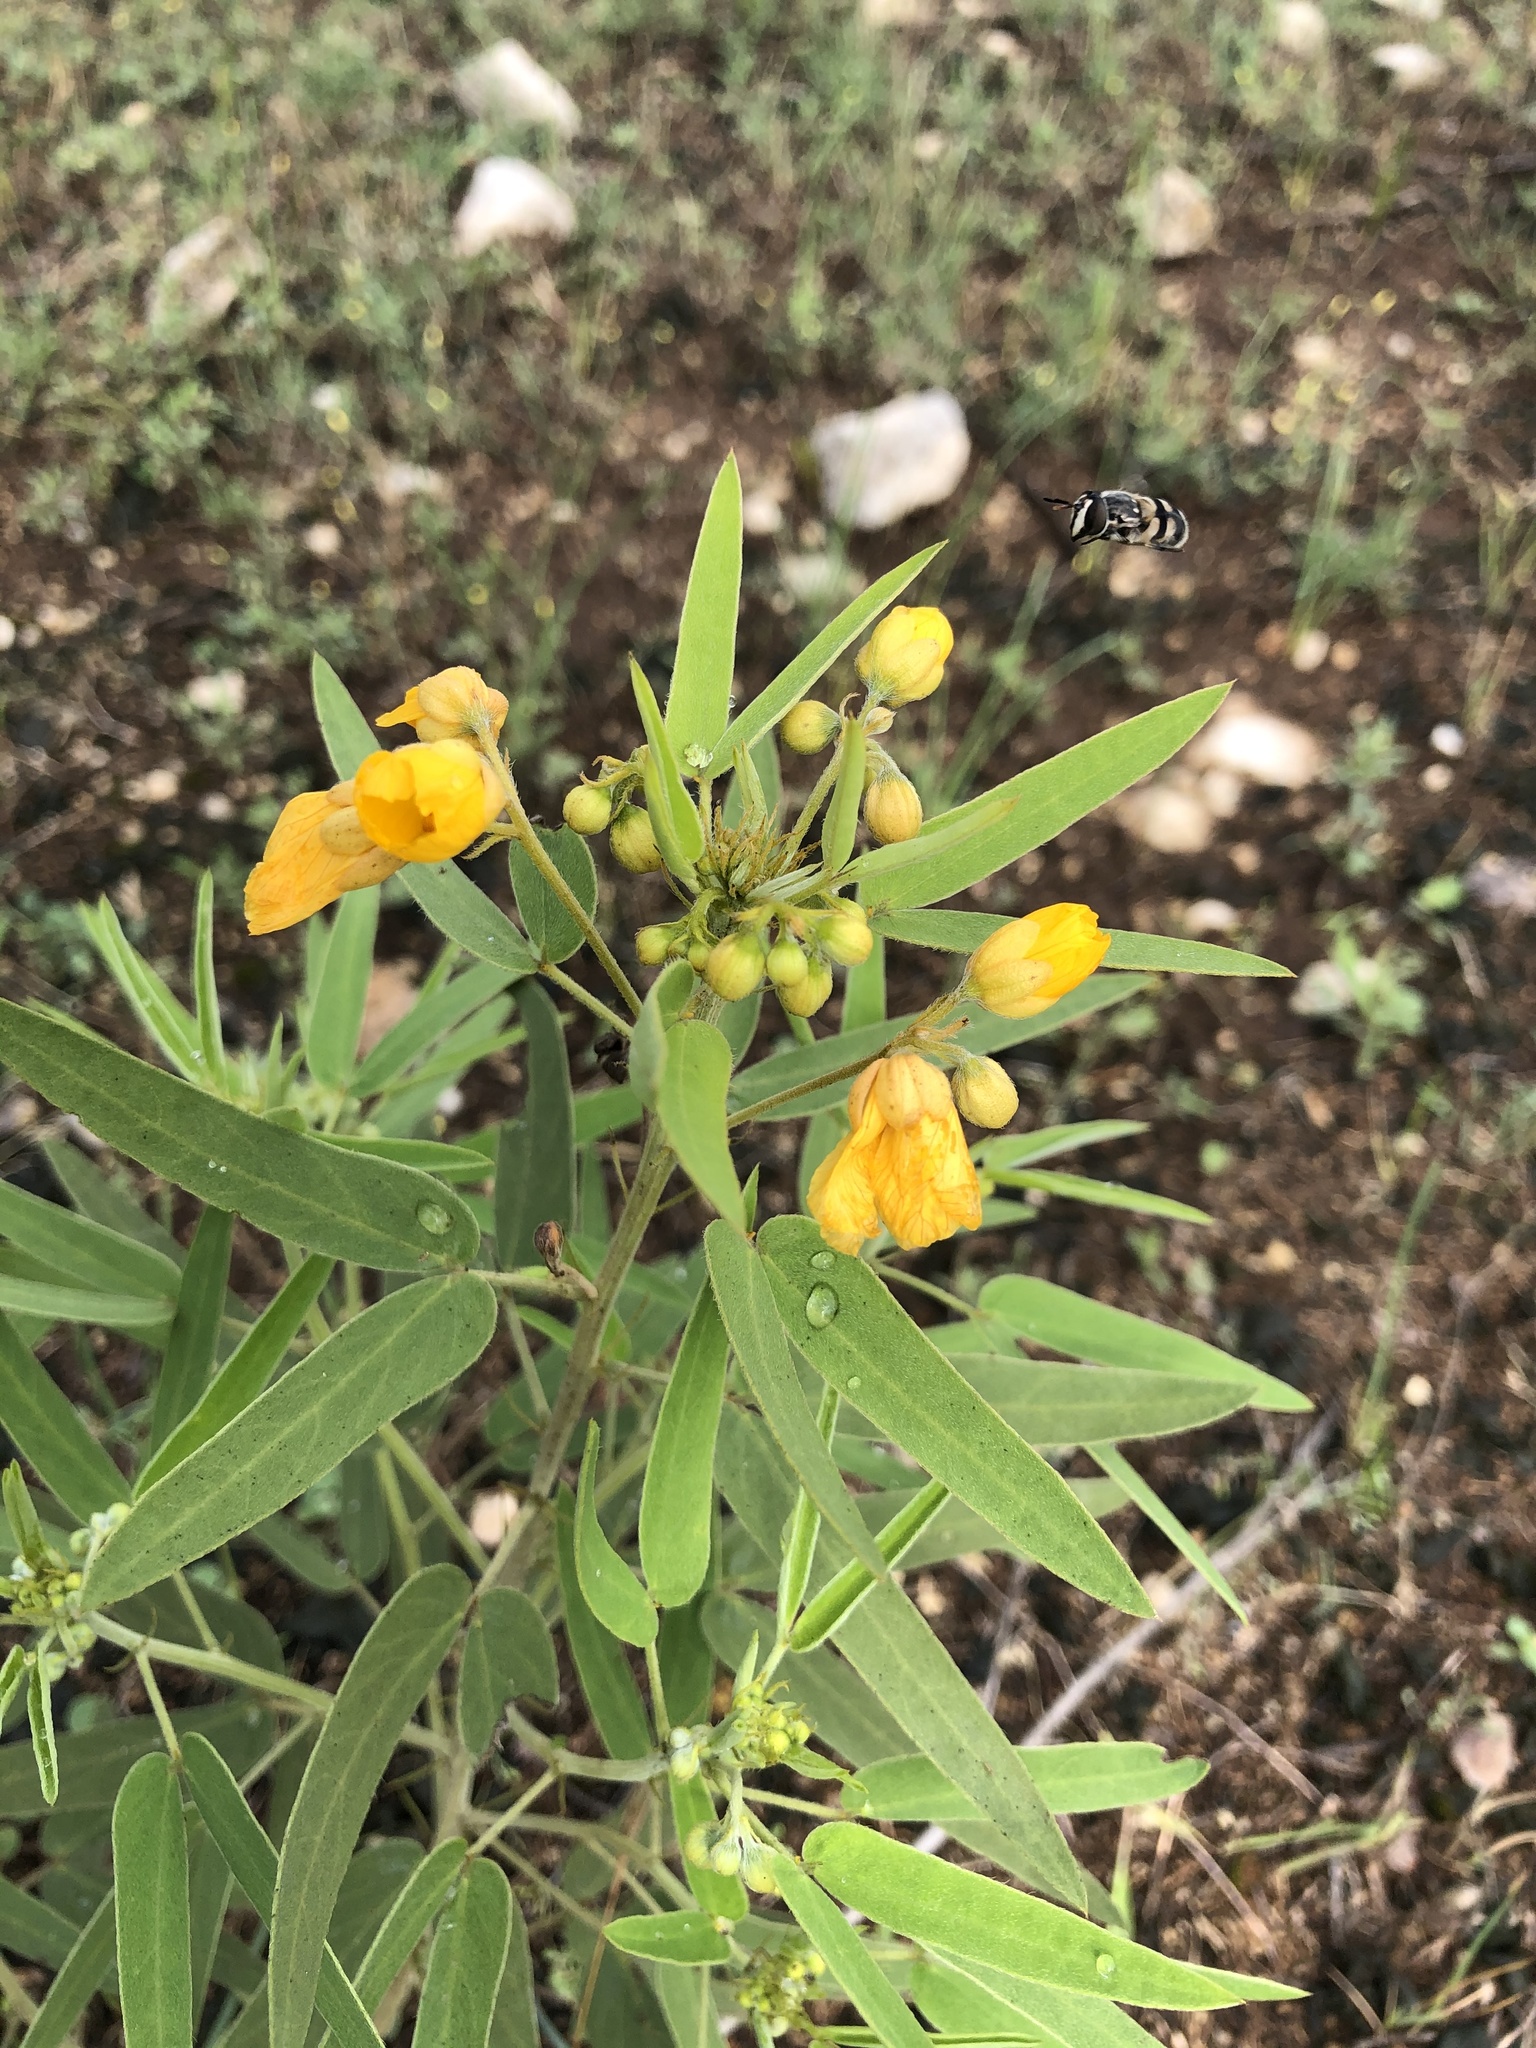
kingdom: Plantae
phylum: Tracheophyta
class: Magnoliopsida
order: Fabales
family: Fabaceae
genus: Senna
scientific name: Senna roemeriana
